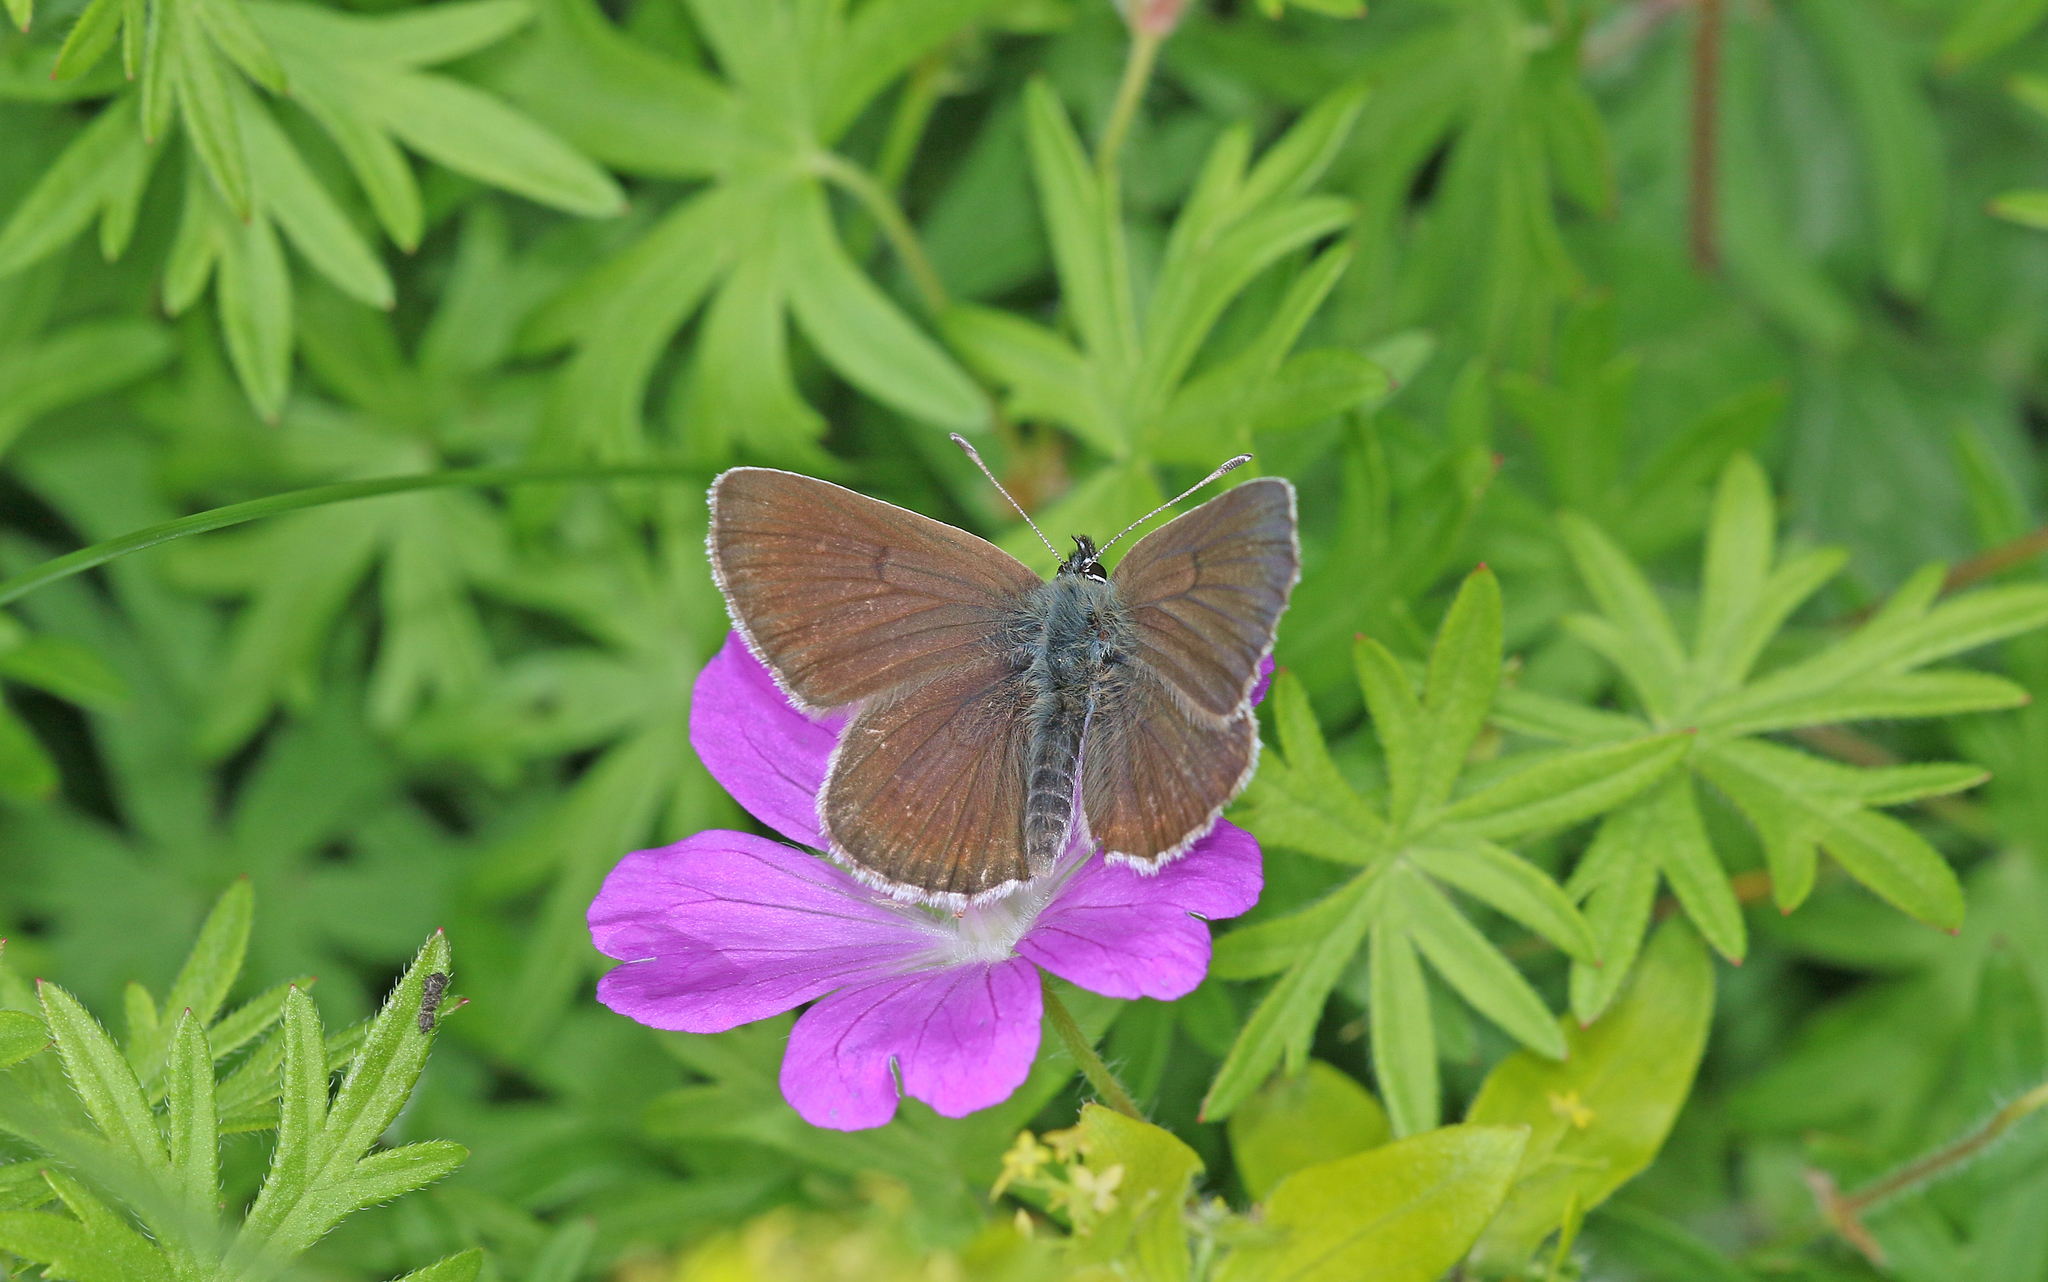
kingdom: Animalia
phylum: Arthropoda
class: Insecta
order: Lepidoptera
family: Lycaenidae
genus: Eumedonia
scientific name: Eumedonia eumedon
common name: Geranium argus
